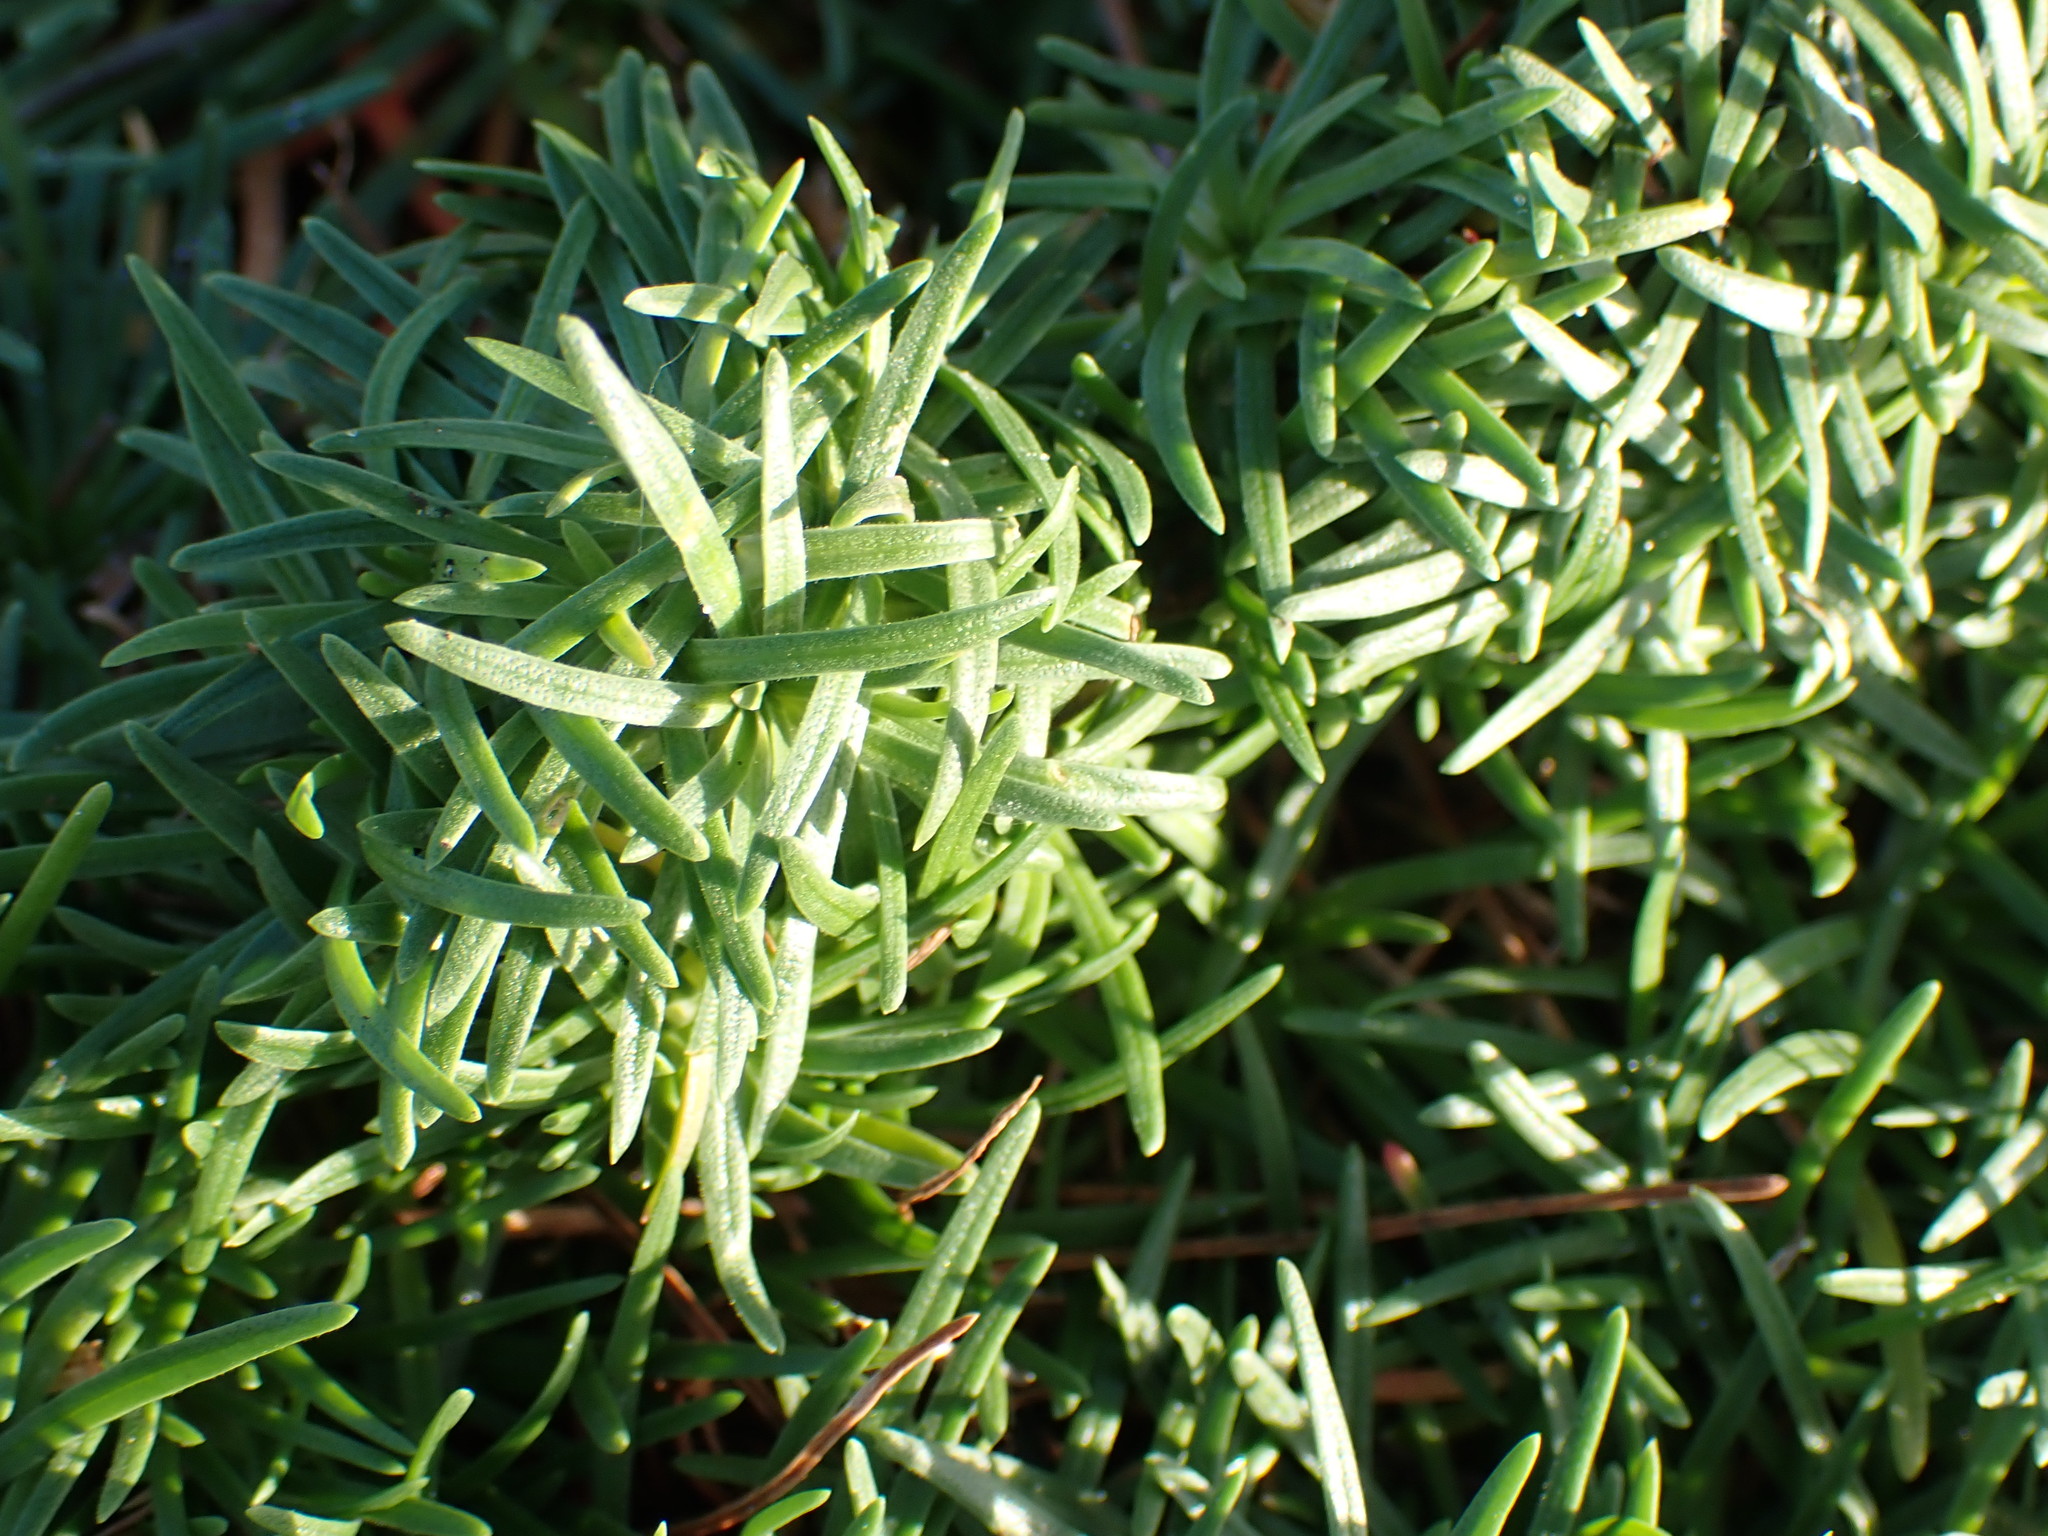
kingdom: Plantae
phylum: Tracheophyta
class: Magnoliopsida
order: Caryophyllales
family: Plumbaginaceae
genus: Armeria
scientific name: Armeria maritima
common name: Thrift
